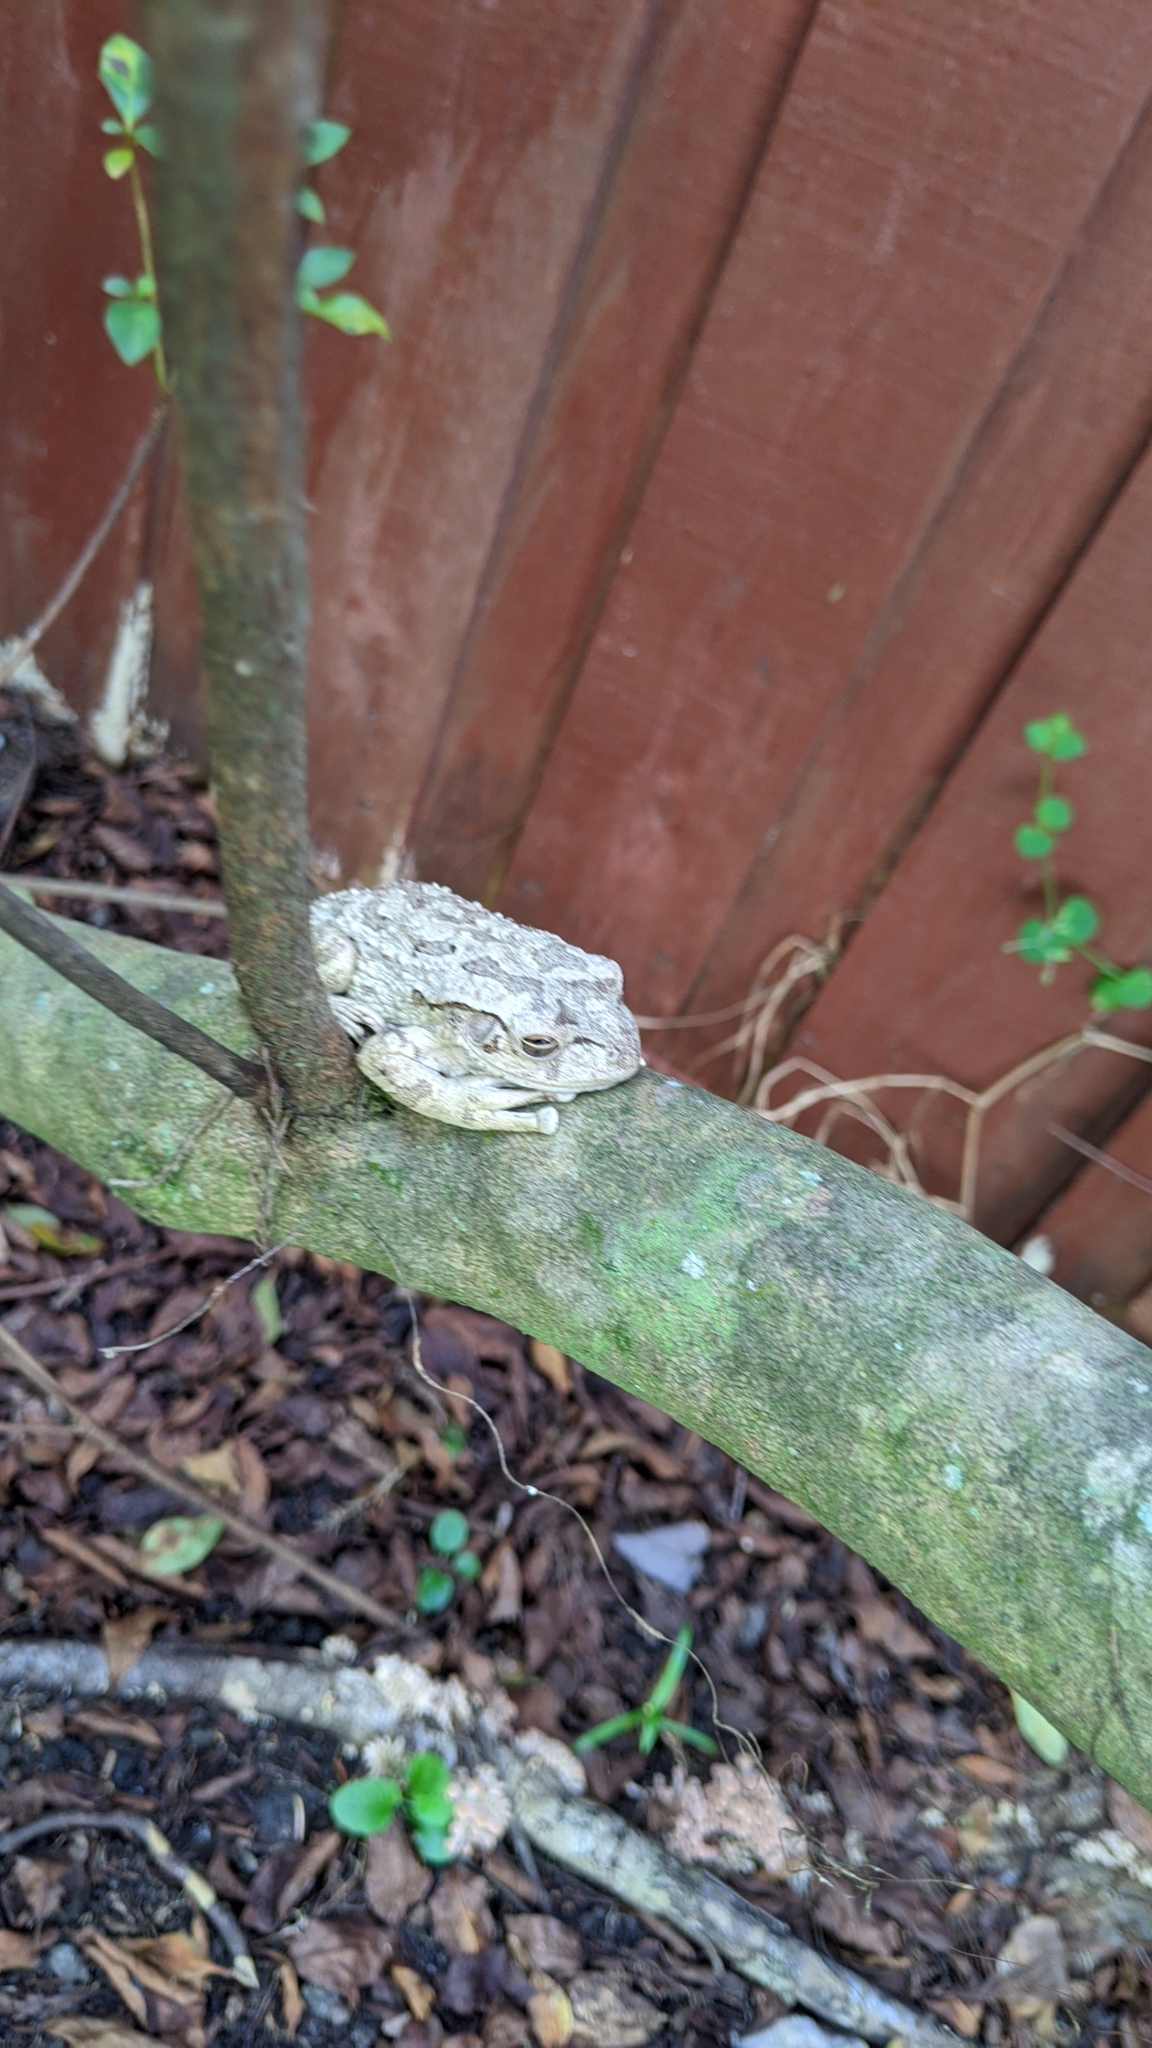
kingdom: Animalia
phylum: Chordata
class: Amphibia
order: Anura
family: Hylidae
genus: Osteopilus
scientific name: Osteopilus septentrionalis
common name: Cuban treefrog
